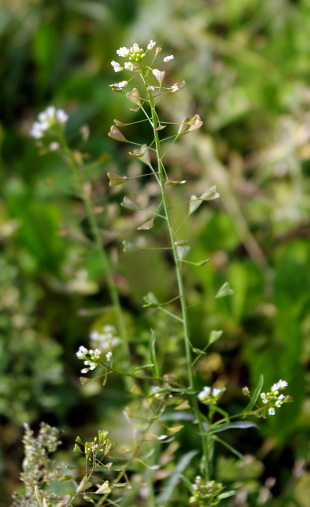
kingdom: Plantae
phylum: Tracheophyta
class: Magnoliopsida
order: Brassicales
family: Brassicaceae
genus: Capsella
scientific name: Capsella bursa-pastoris
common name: Shepherd's purse
